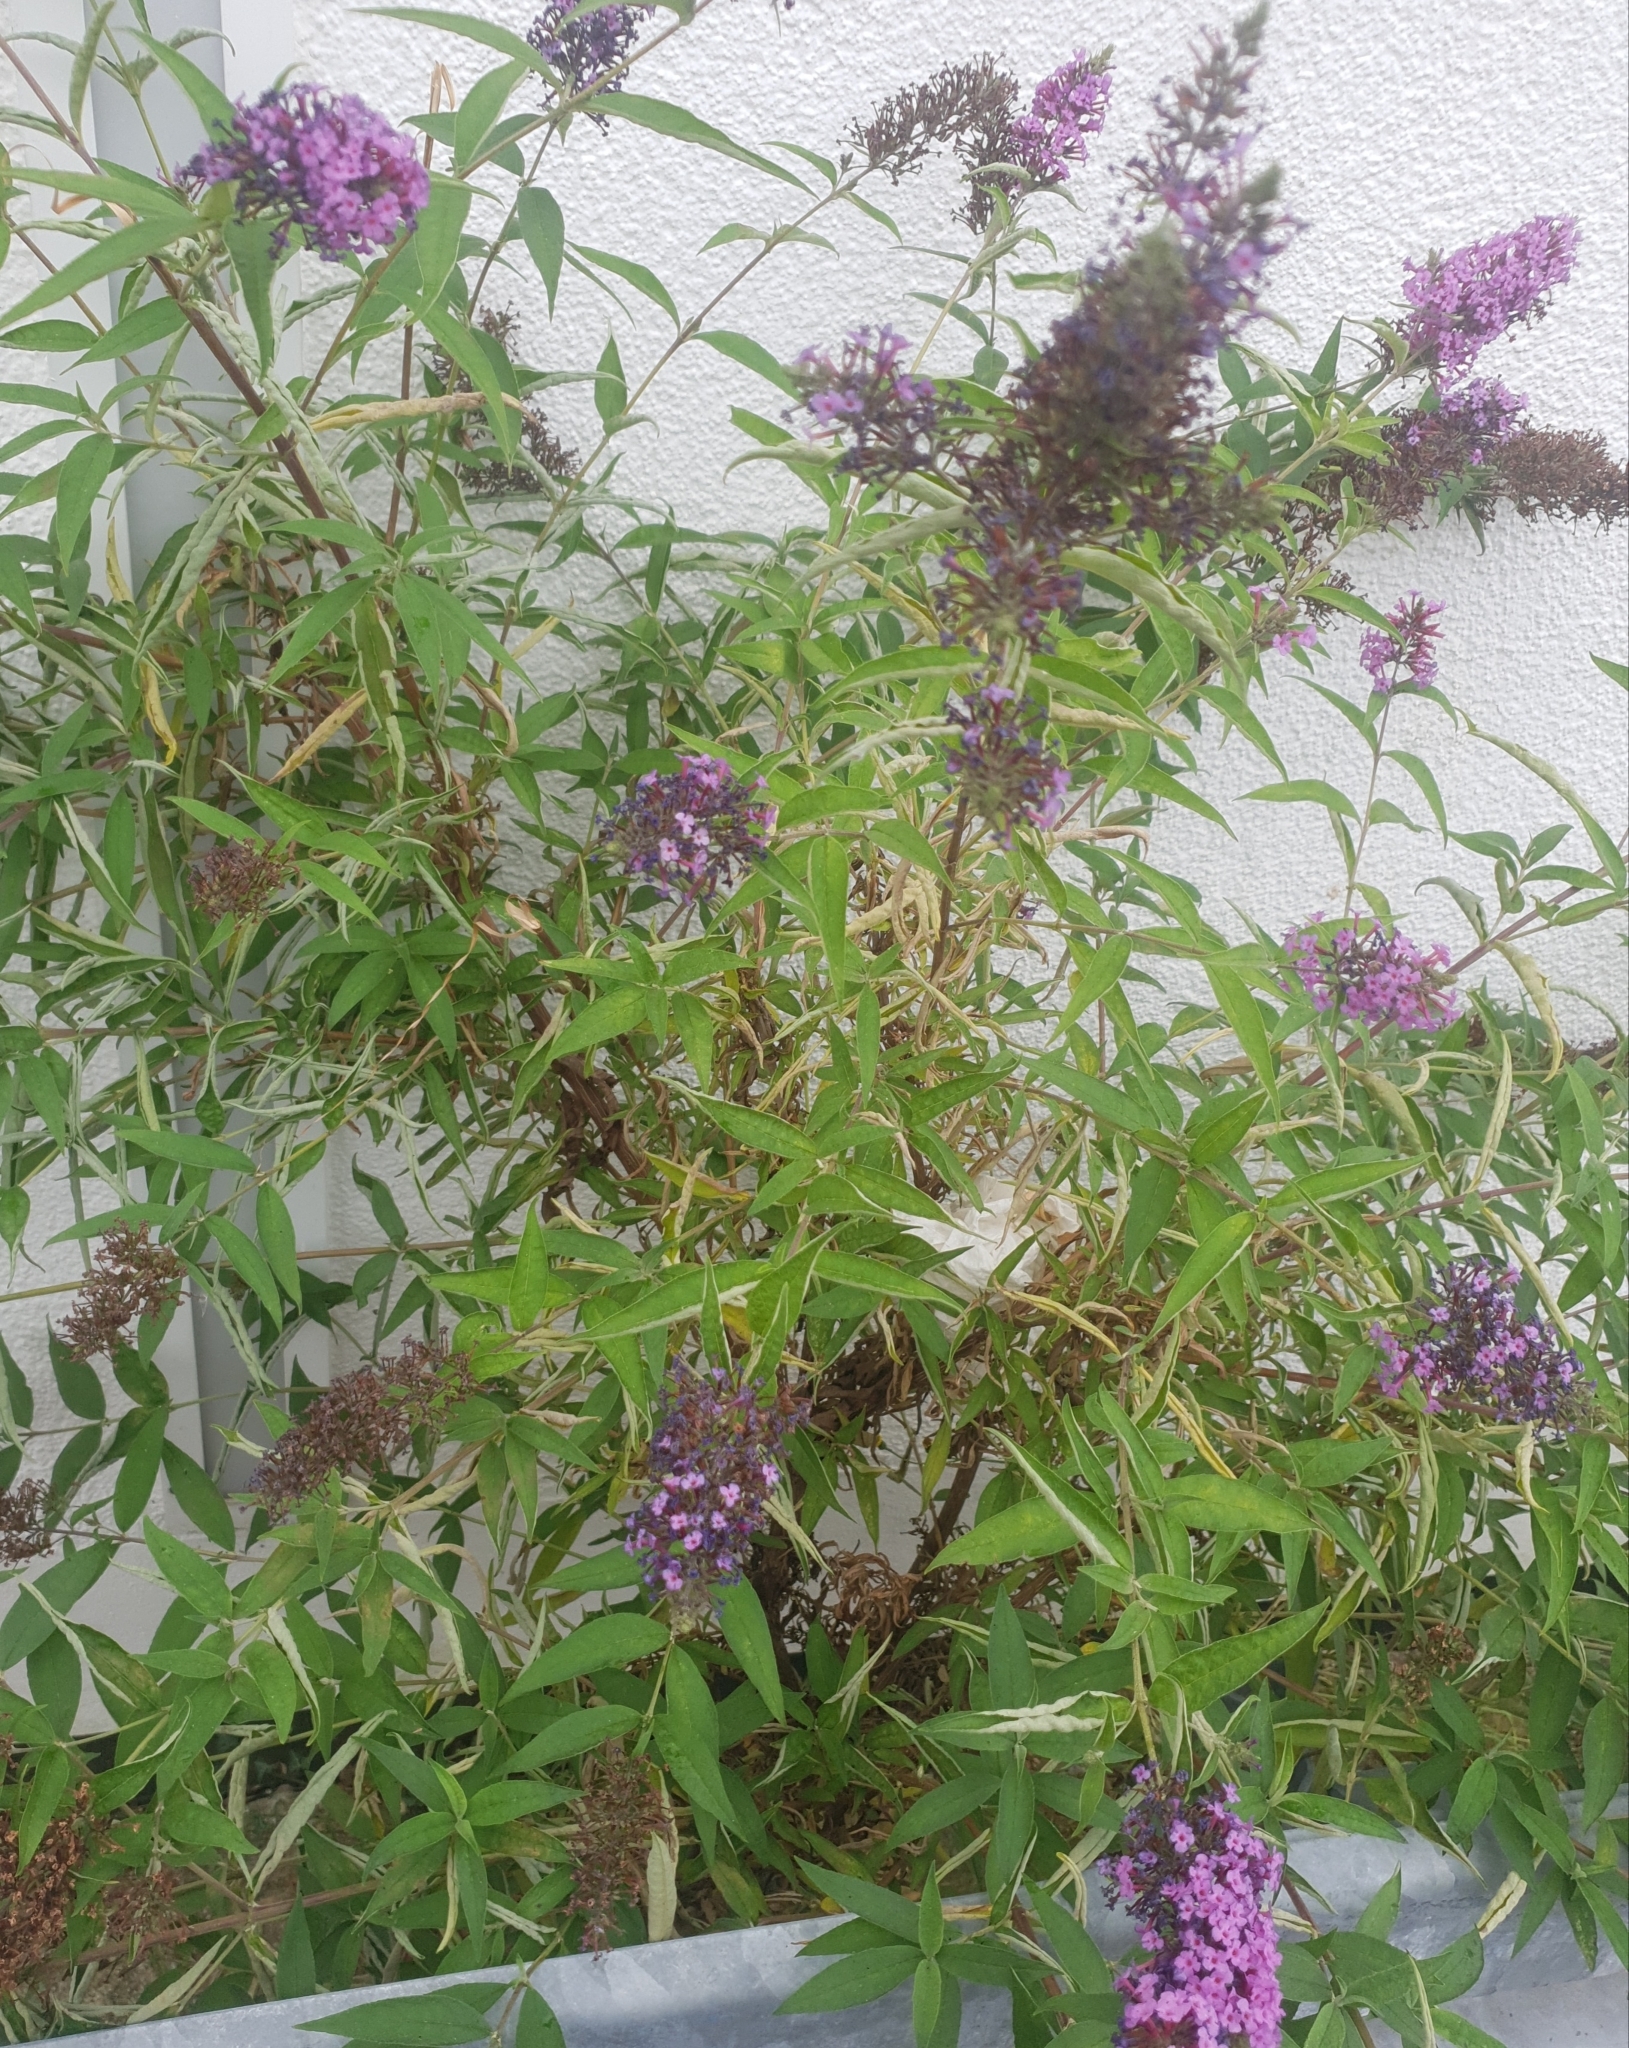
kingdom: Plantae
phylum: Tracheophyta
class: Magnoliopsida
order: Lamiales
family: Scrophulariaceae
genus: Buddleja
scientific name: Buddleja davidii
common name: Butterfly-bush
